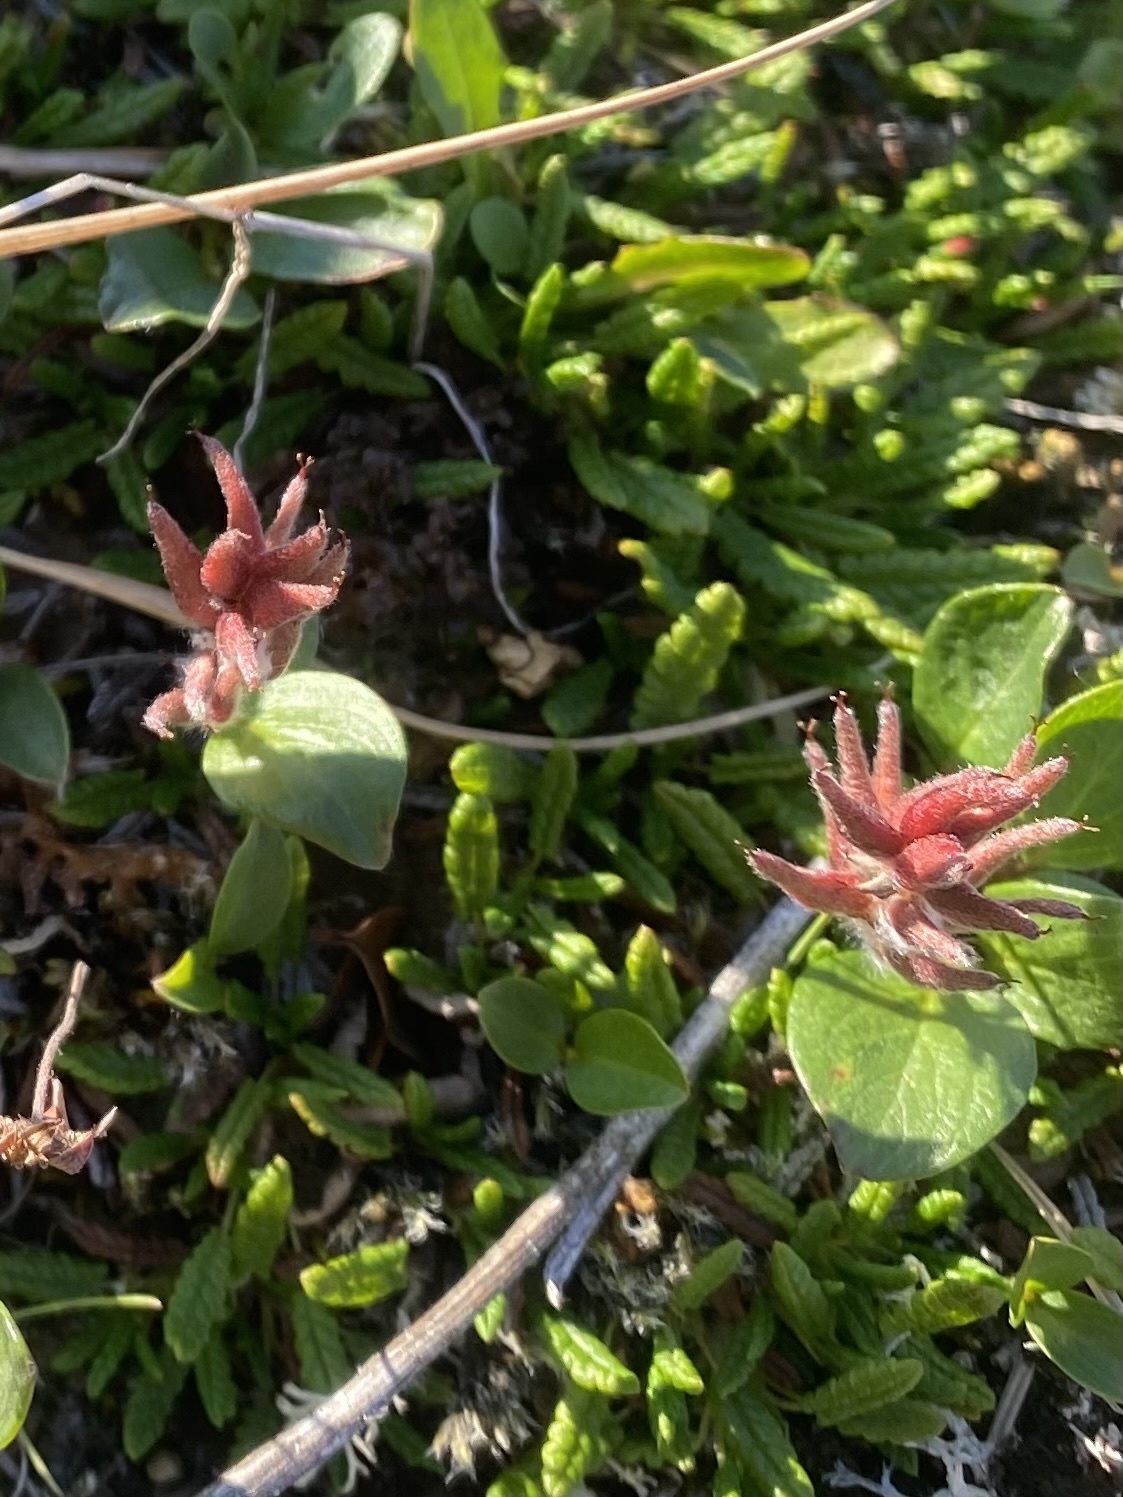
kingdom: Plantae
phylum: Tracheophyta
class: Magnoliopsida
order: Malpighiales
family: Salicaceae
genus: Salix
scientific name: Salix polaris
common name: Polar willow
